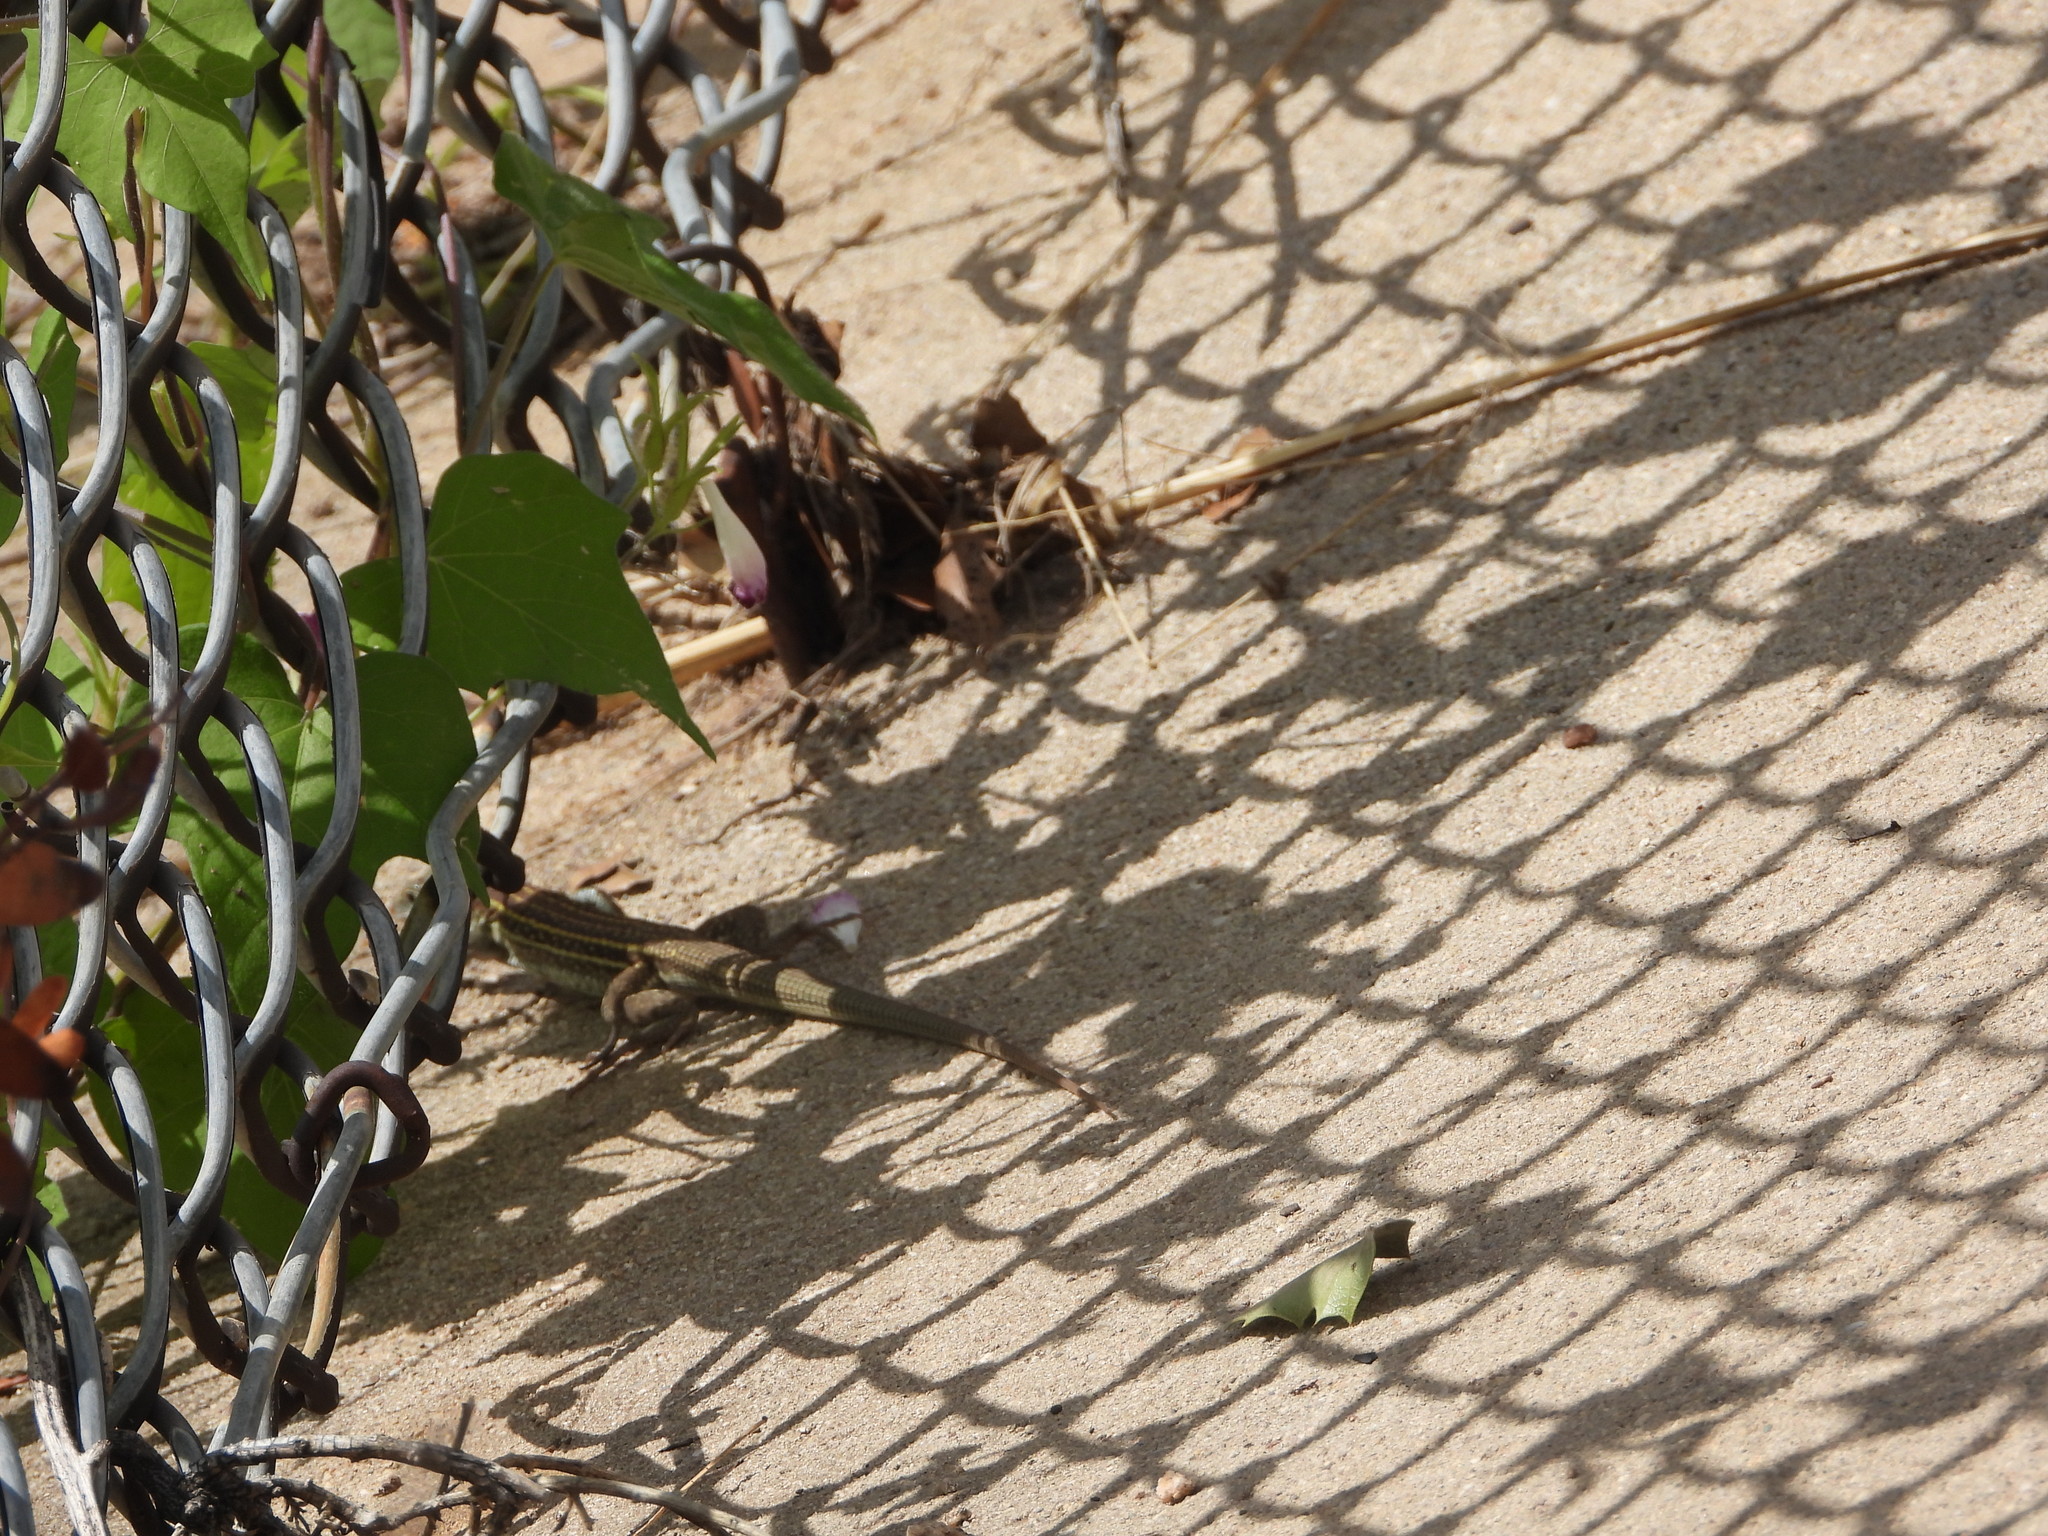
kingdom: Animalia
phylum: Chordata
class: Squamata
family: Teiidae
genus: Aspidoscelis
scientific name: Aspidoscelis sonorae
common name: Sonoran spotted whiptail
